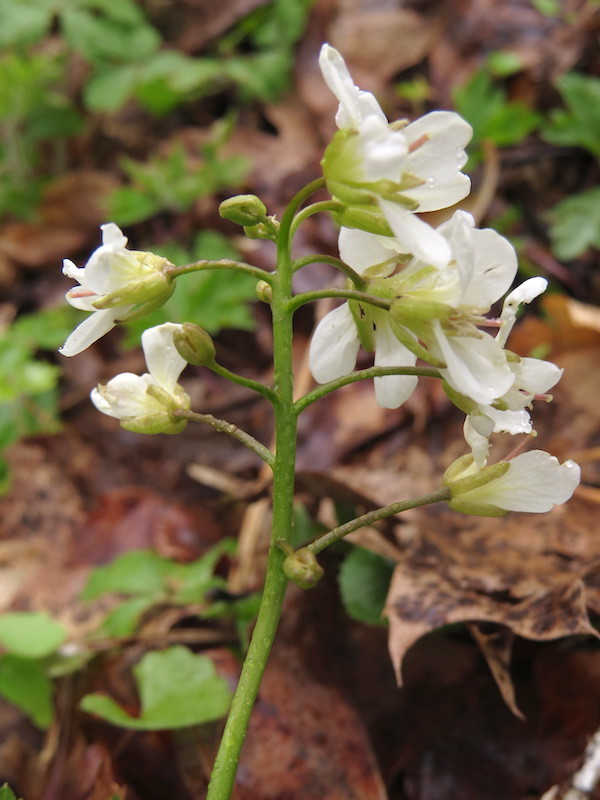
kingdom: Plantae
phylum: Tracheophyta
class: Magnoliopsida
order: Brassicales
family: Brassicaceae
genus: Cardamine
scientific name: Cardamine diphylla
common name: Broad-leaved toothwort
